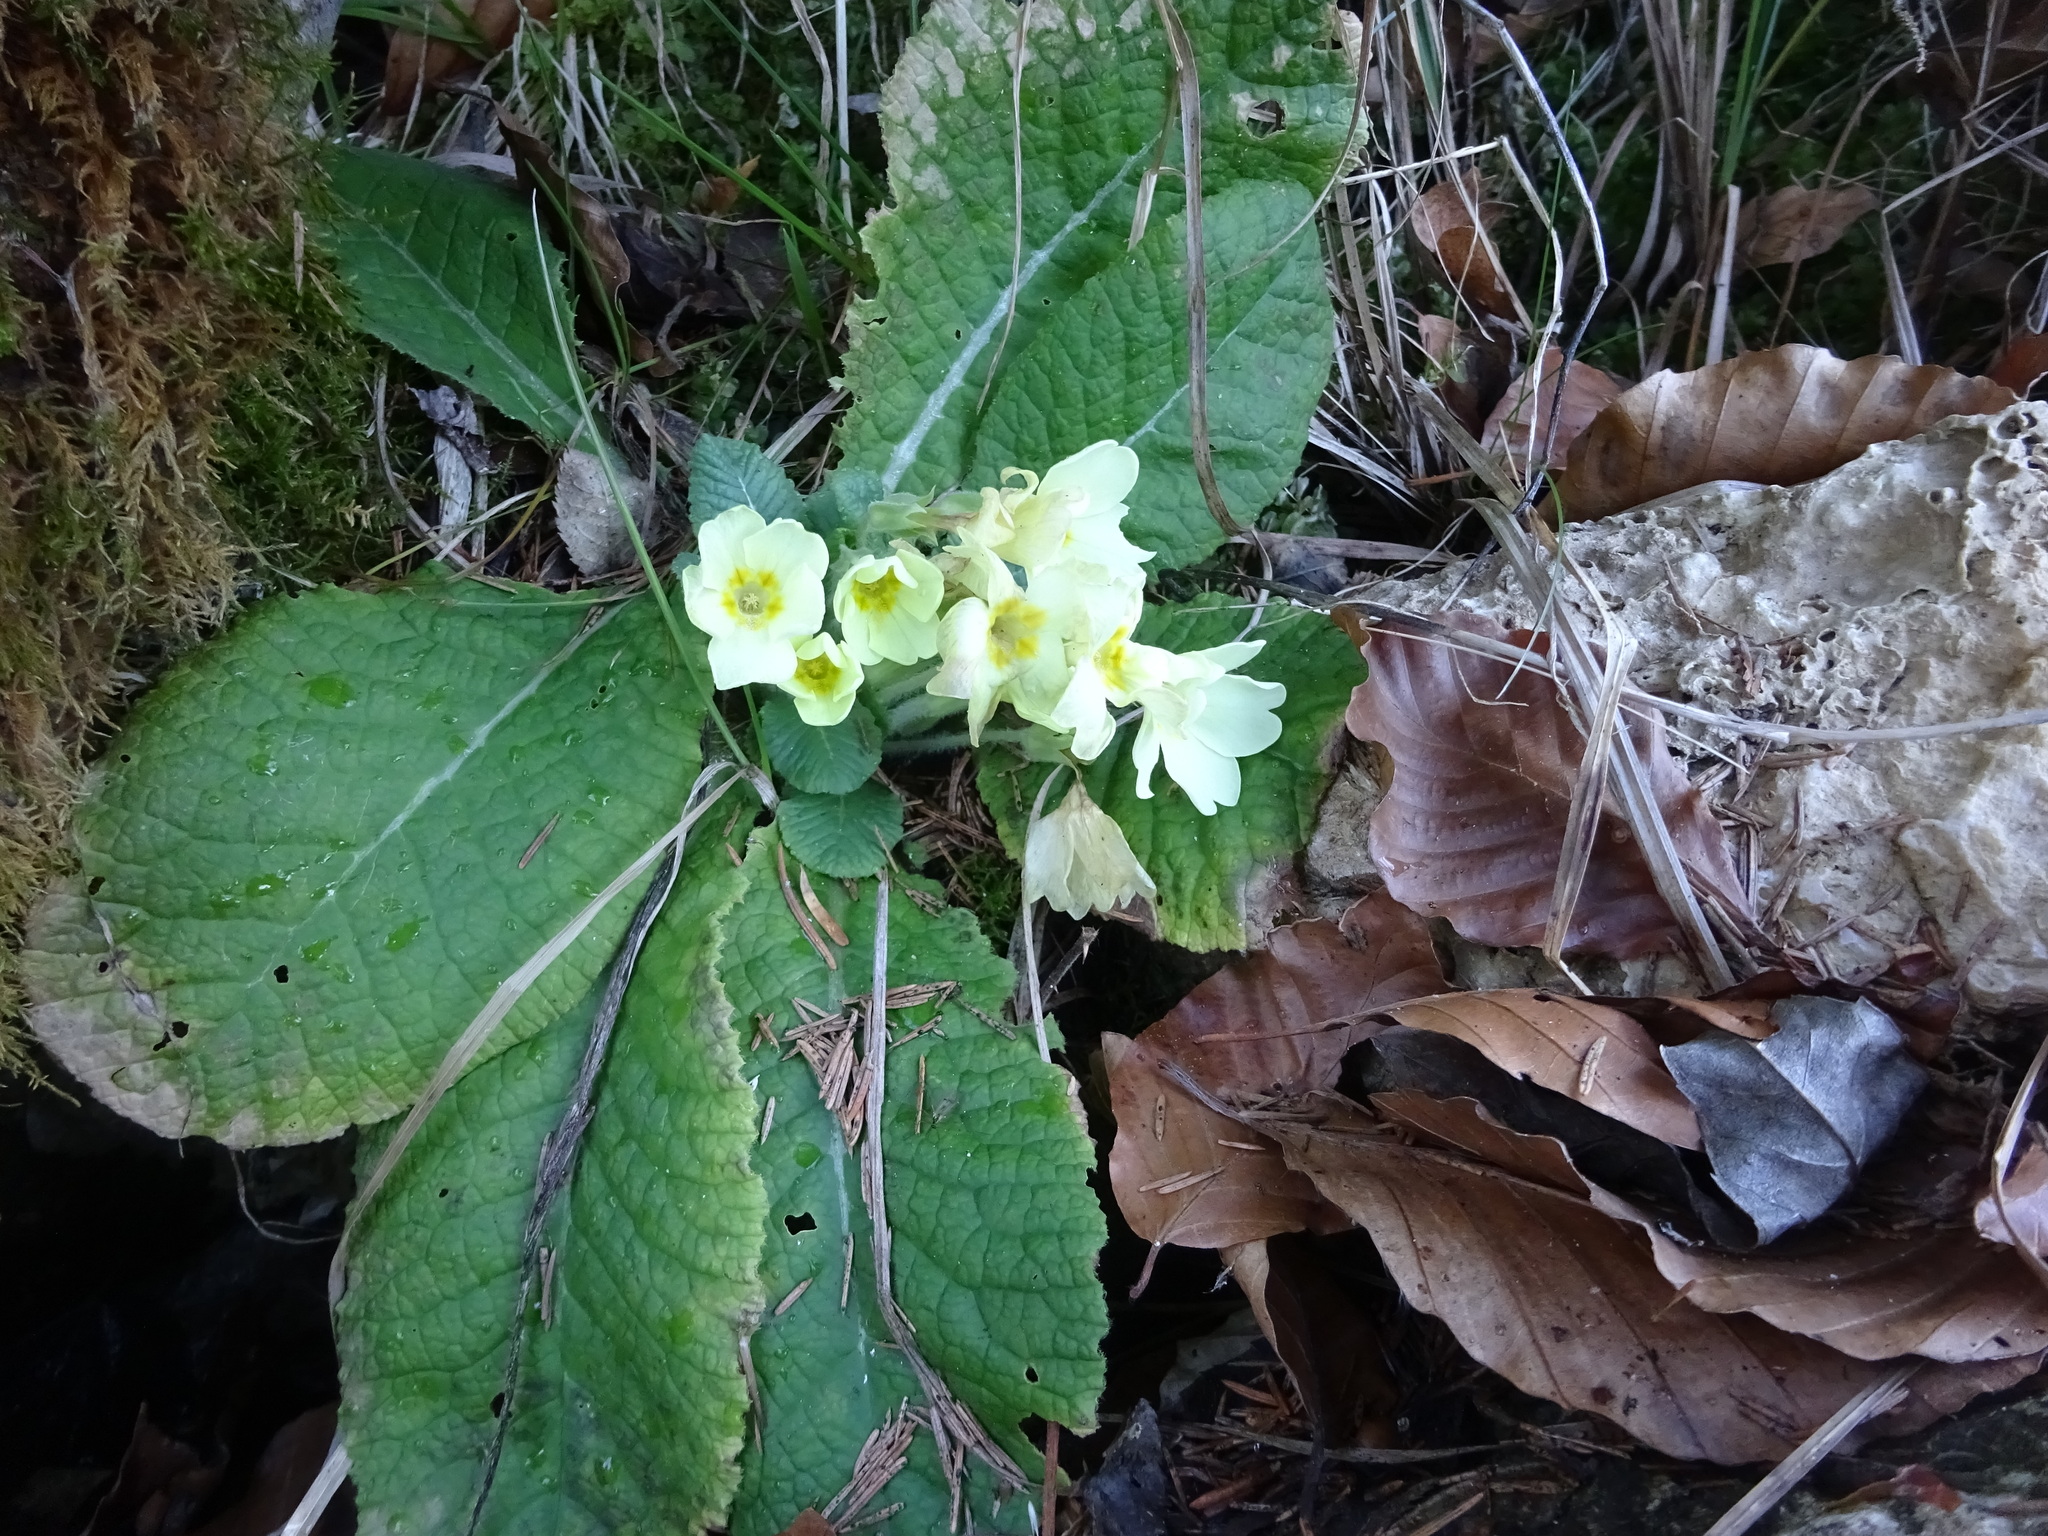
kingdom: Plantae
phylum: Tracheophyta
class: Magnoliopsida
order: Ericales
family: Primulaceae
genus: Primula
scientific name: Primula vulgaris
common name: Primrose
